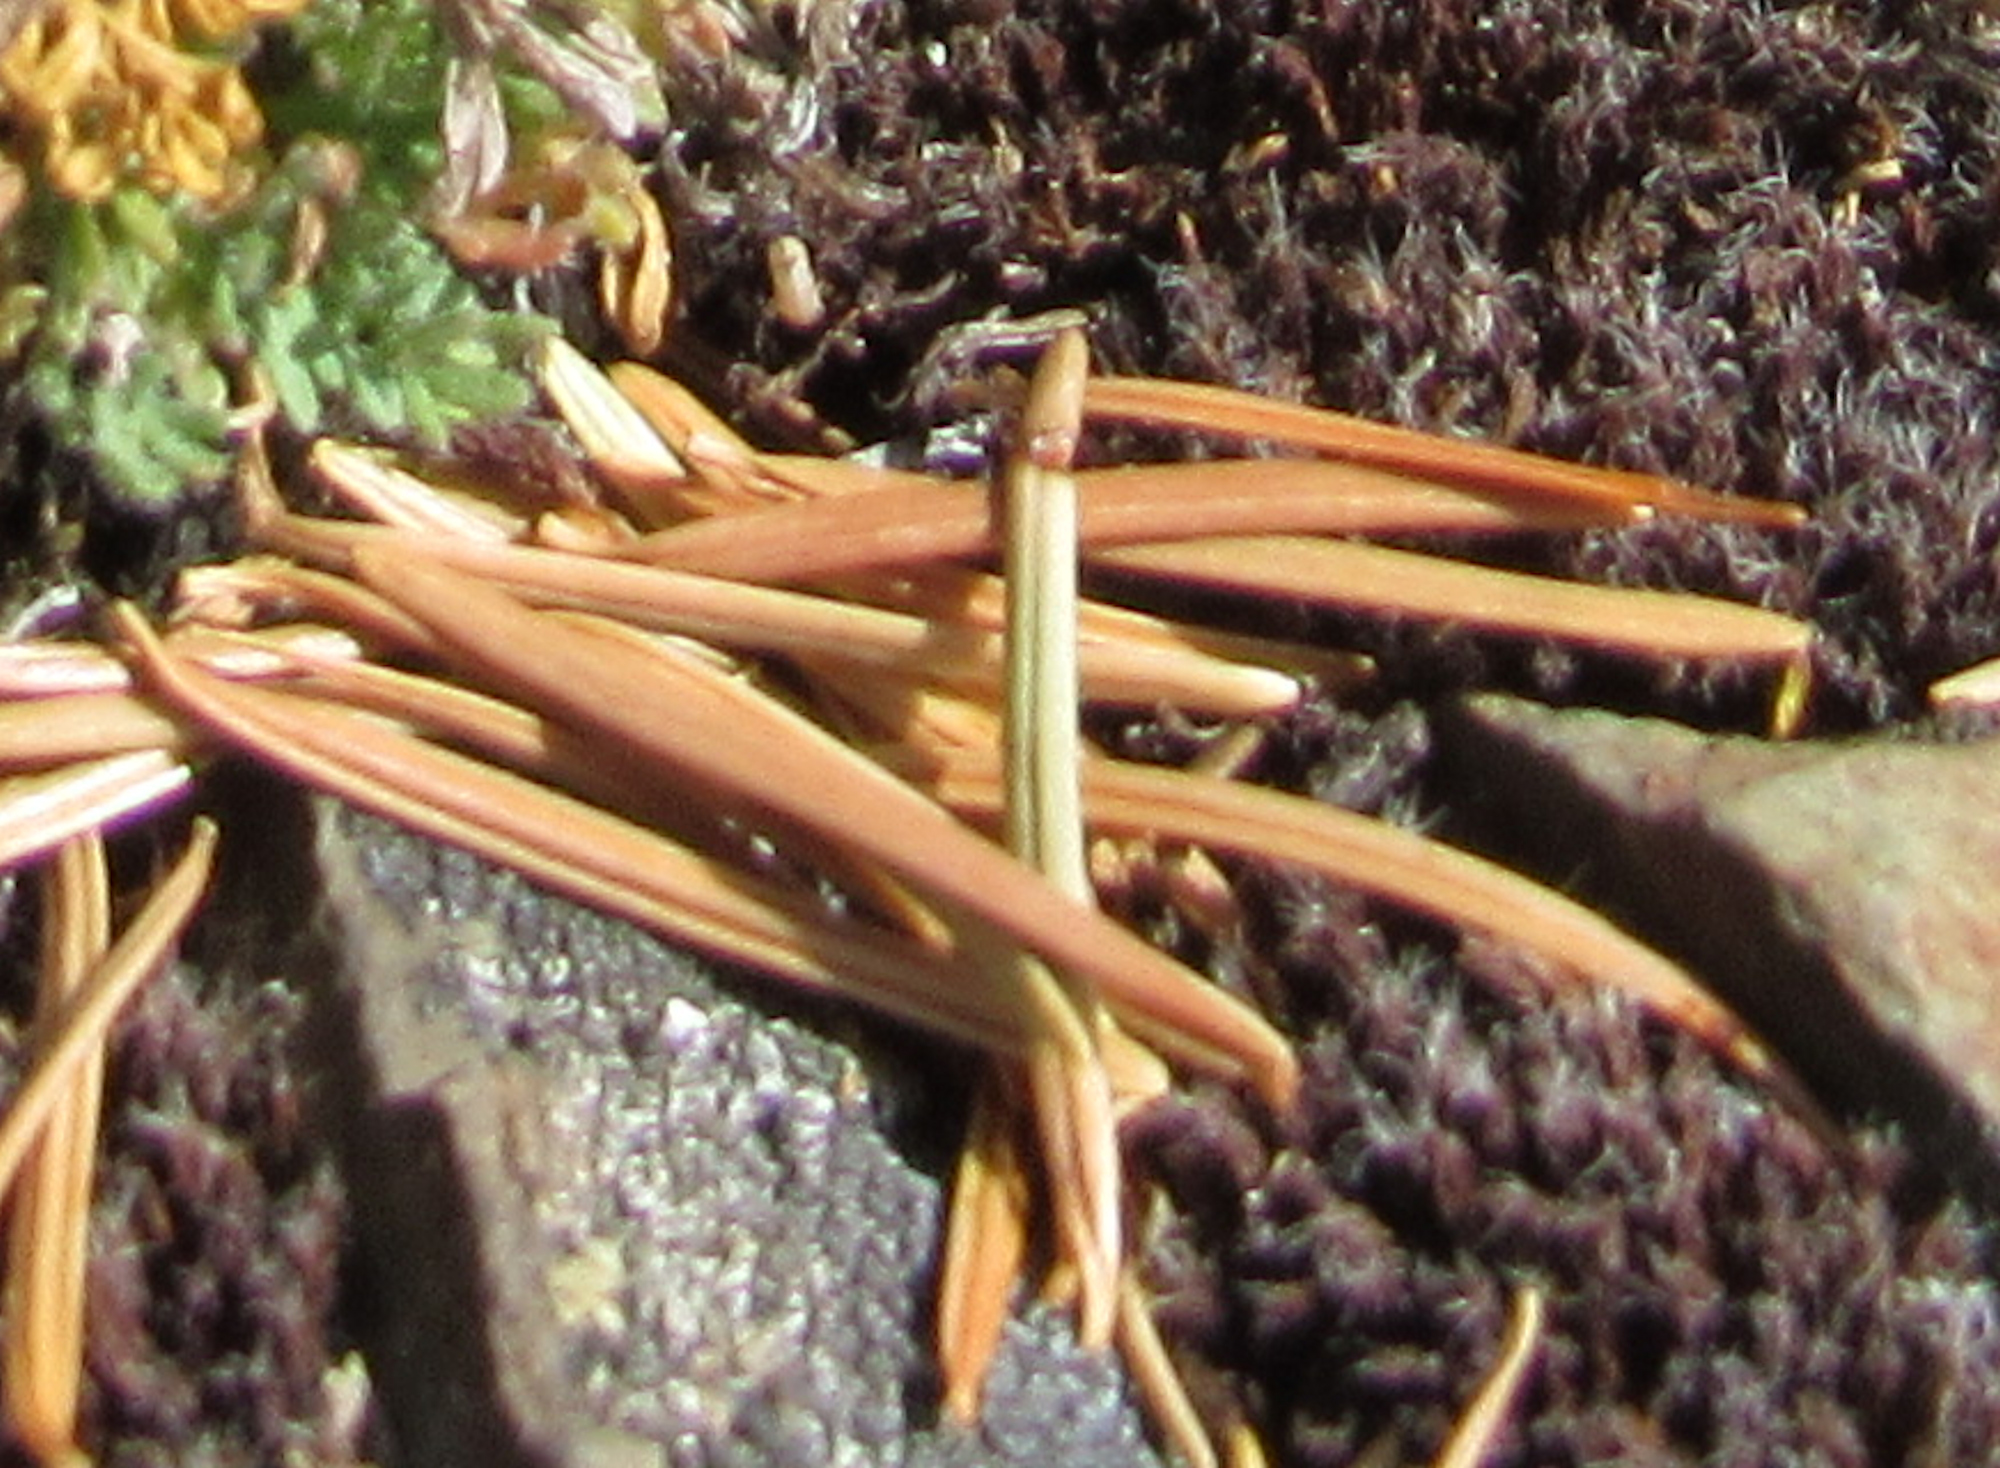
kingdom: Plantae
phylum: Tracheophyta
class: Pinopsida
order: Pinales
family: Pinaceae
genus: Pseudotsuga
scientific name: Pseudotsuga menziesii
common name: Douglas fir
